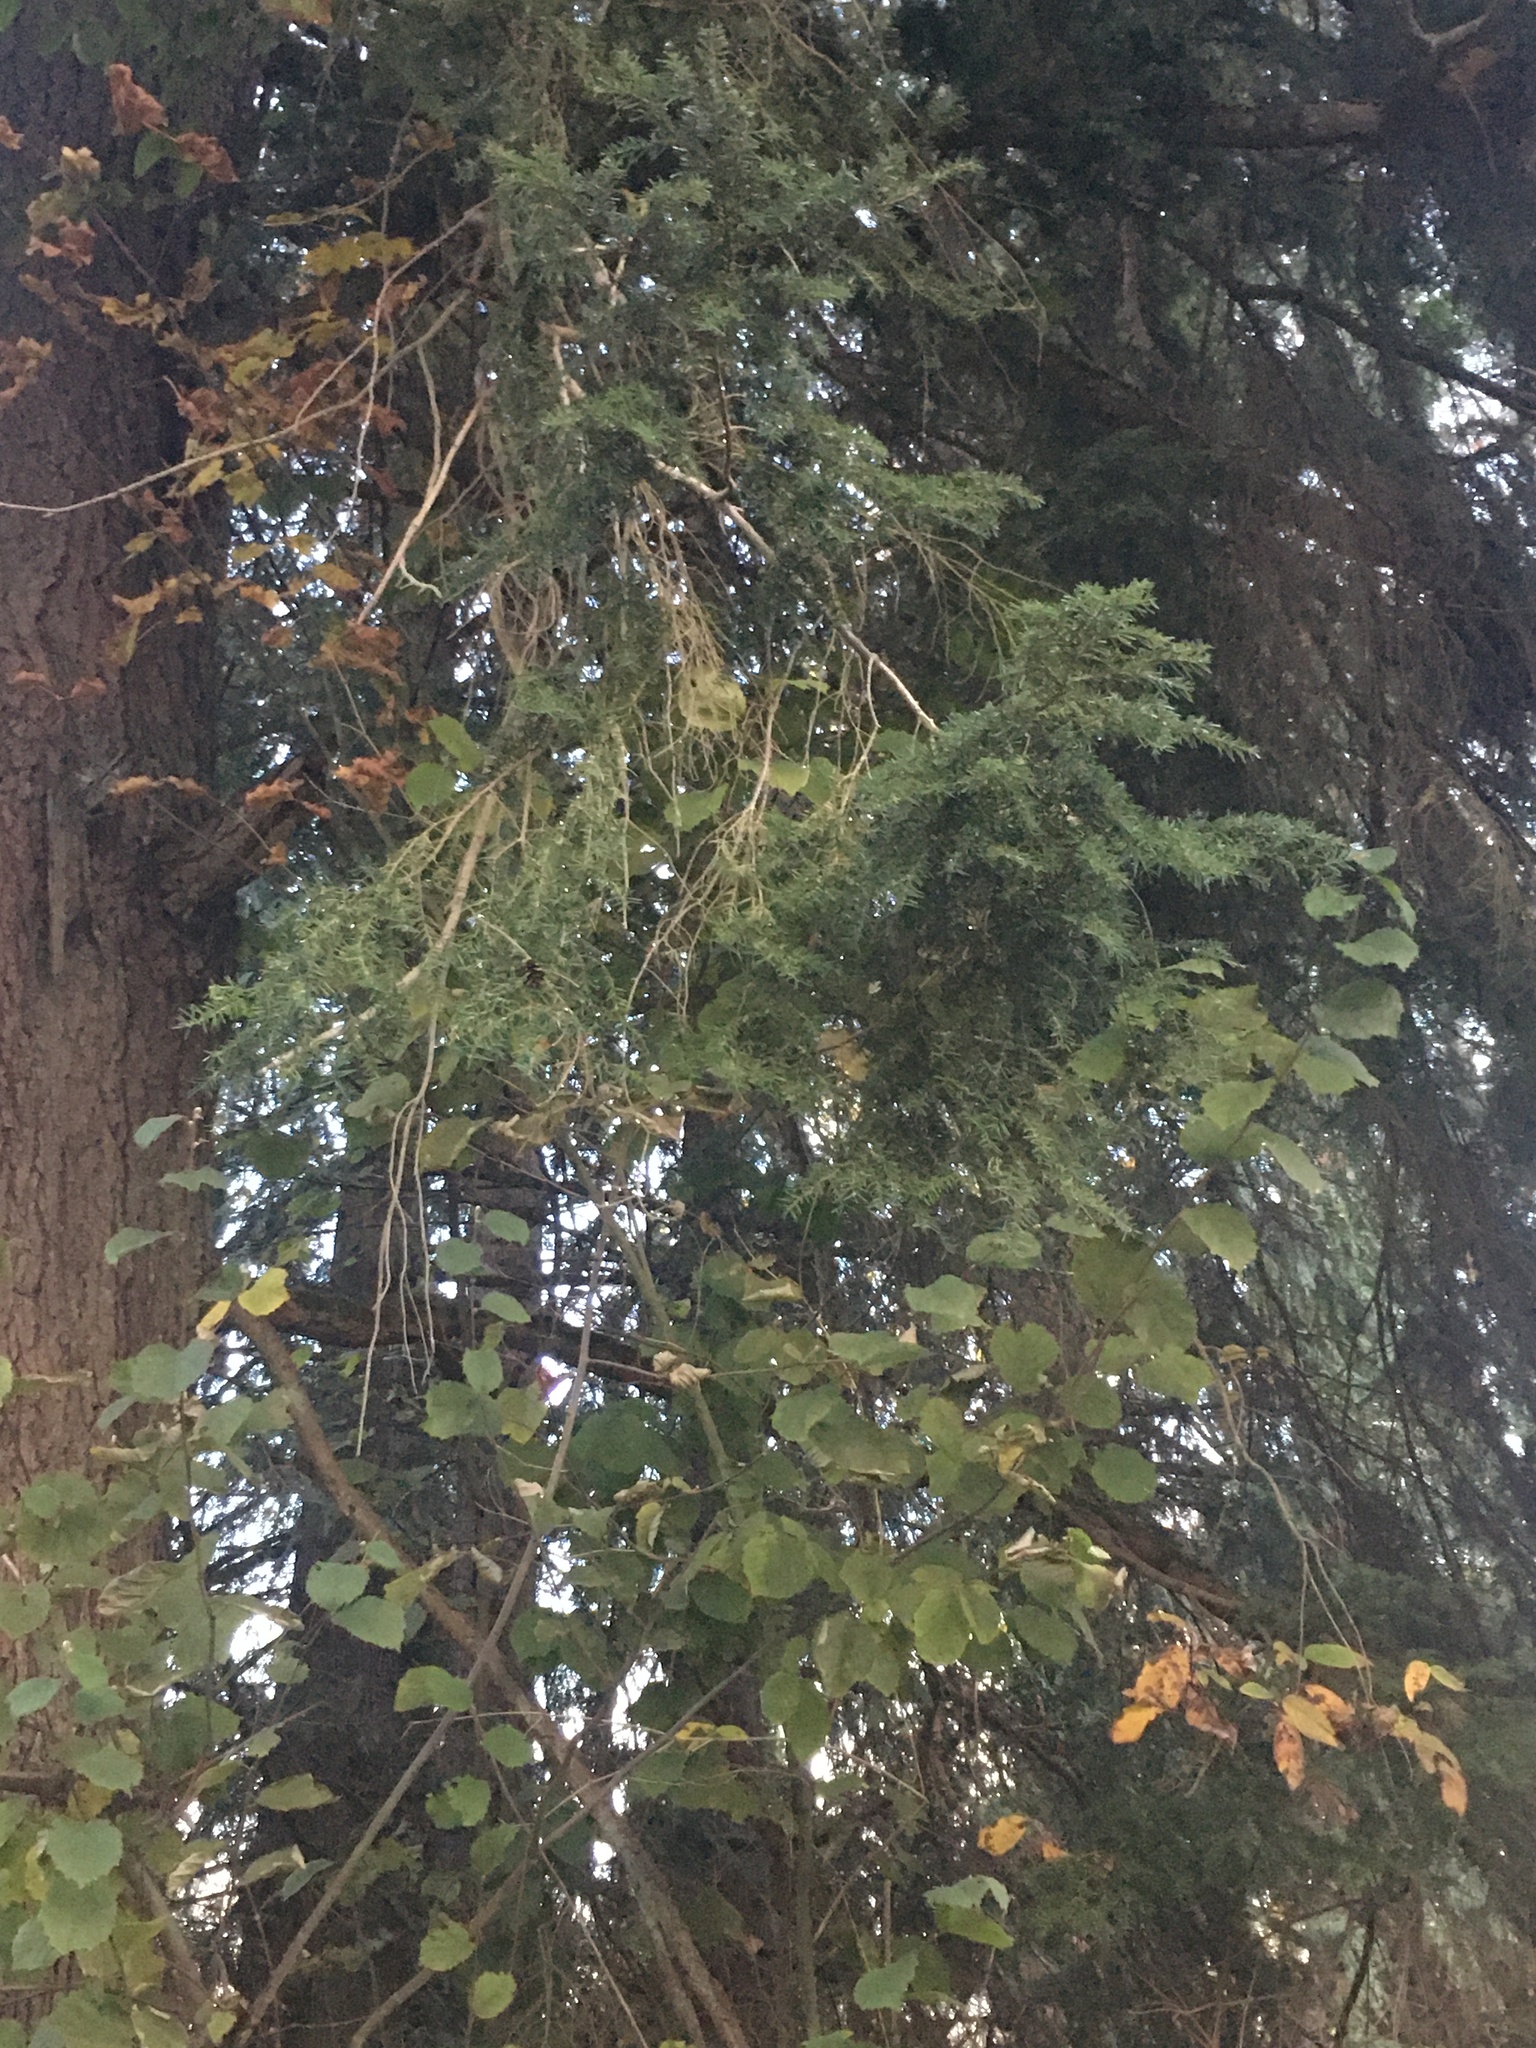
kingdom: Plantae
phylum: Tracheophyta
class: Pinopsida
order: Pinales
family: Pinaceae
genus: Tsuga
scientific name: Tsuga heterophylla
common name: Western hemlock
